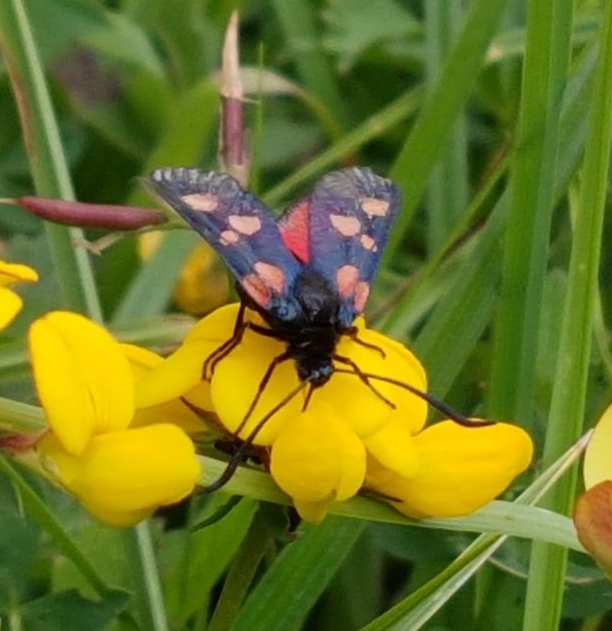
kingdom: Animalia
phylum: Arthropoda
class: Insecta
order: Lepidoptera
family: Zygaenidae
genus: Zygaena
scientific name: Zygaena trifolii
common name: Five-spot burnet
